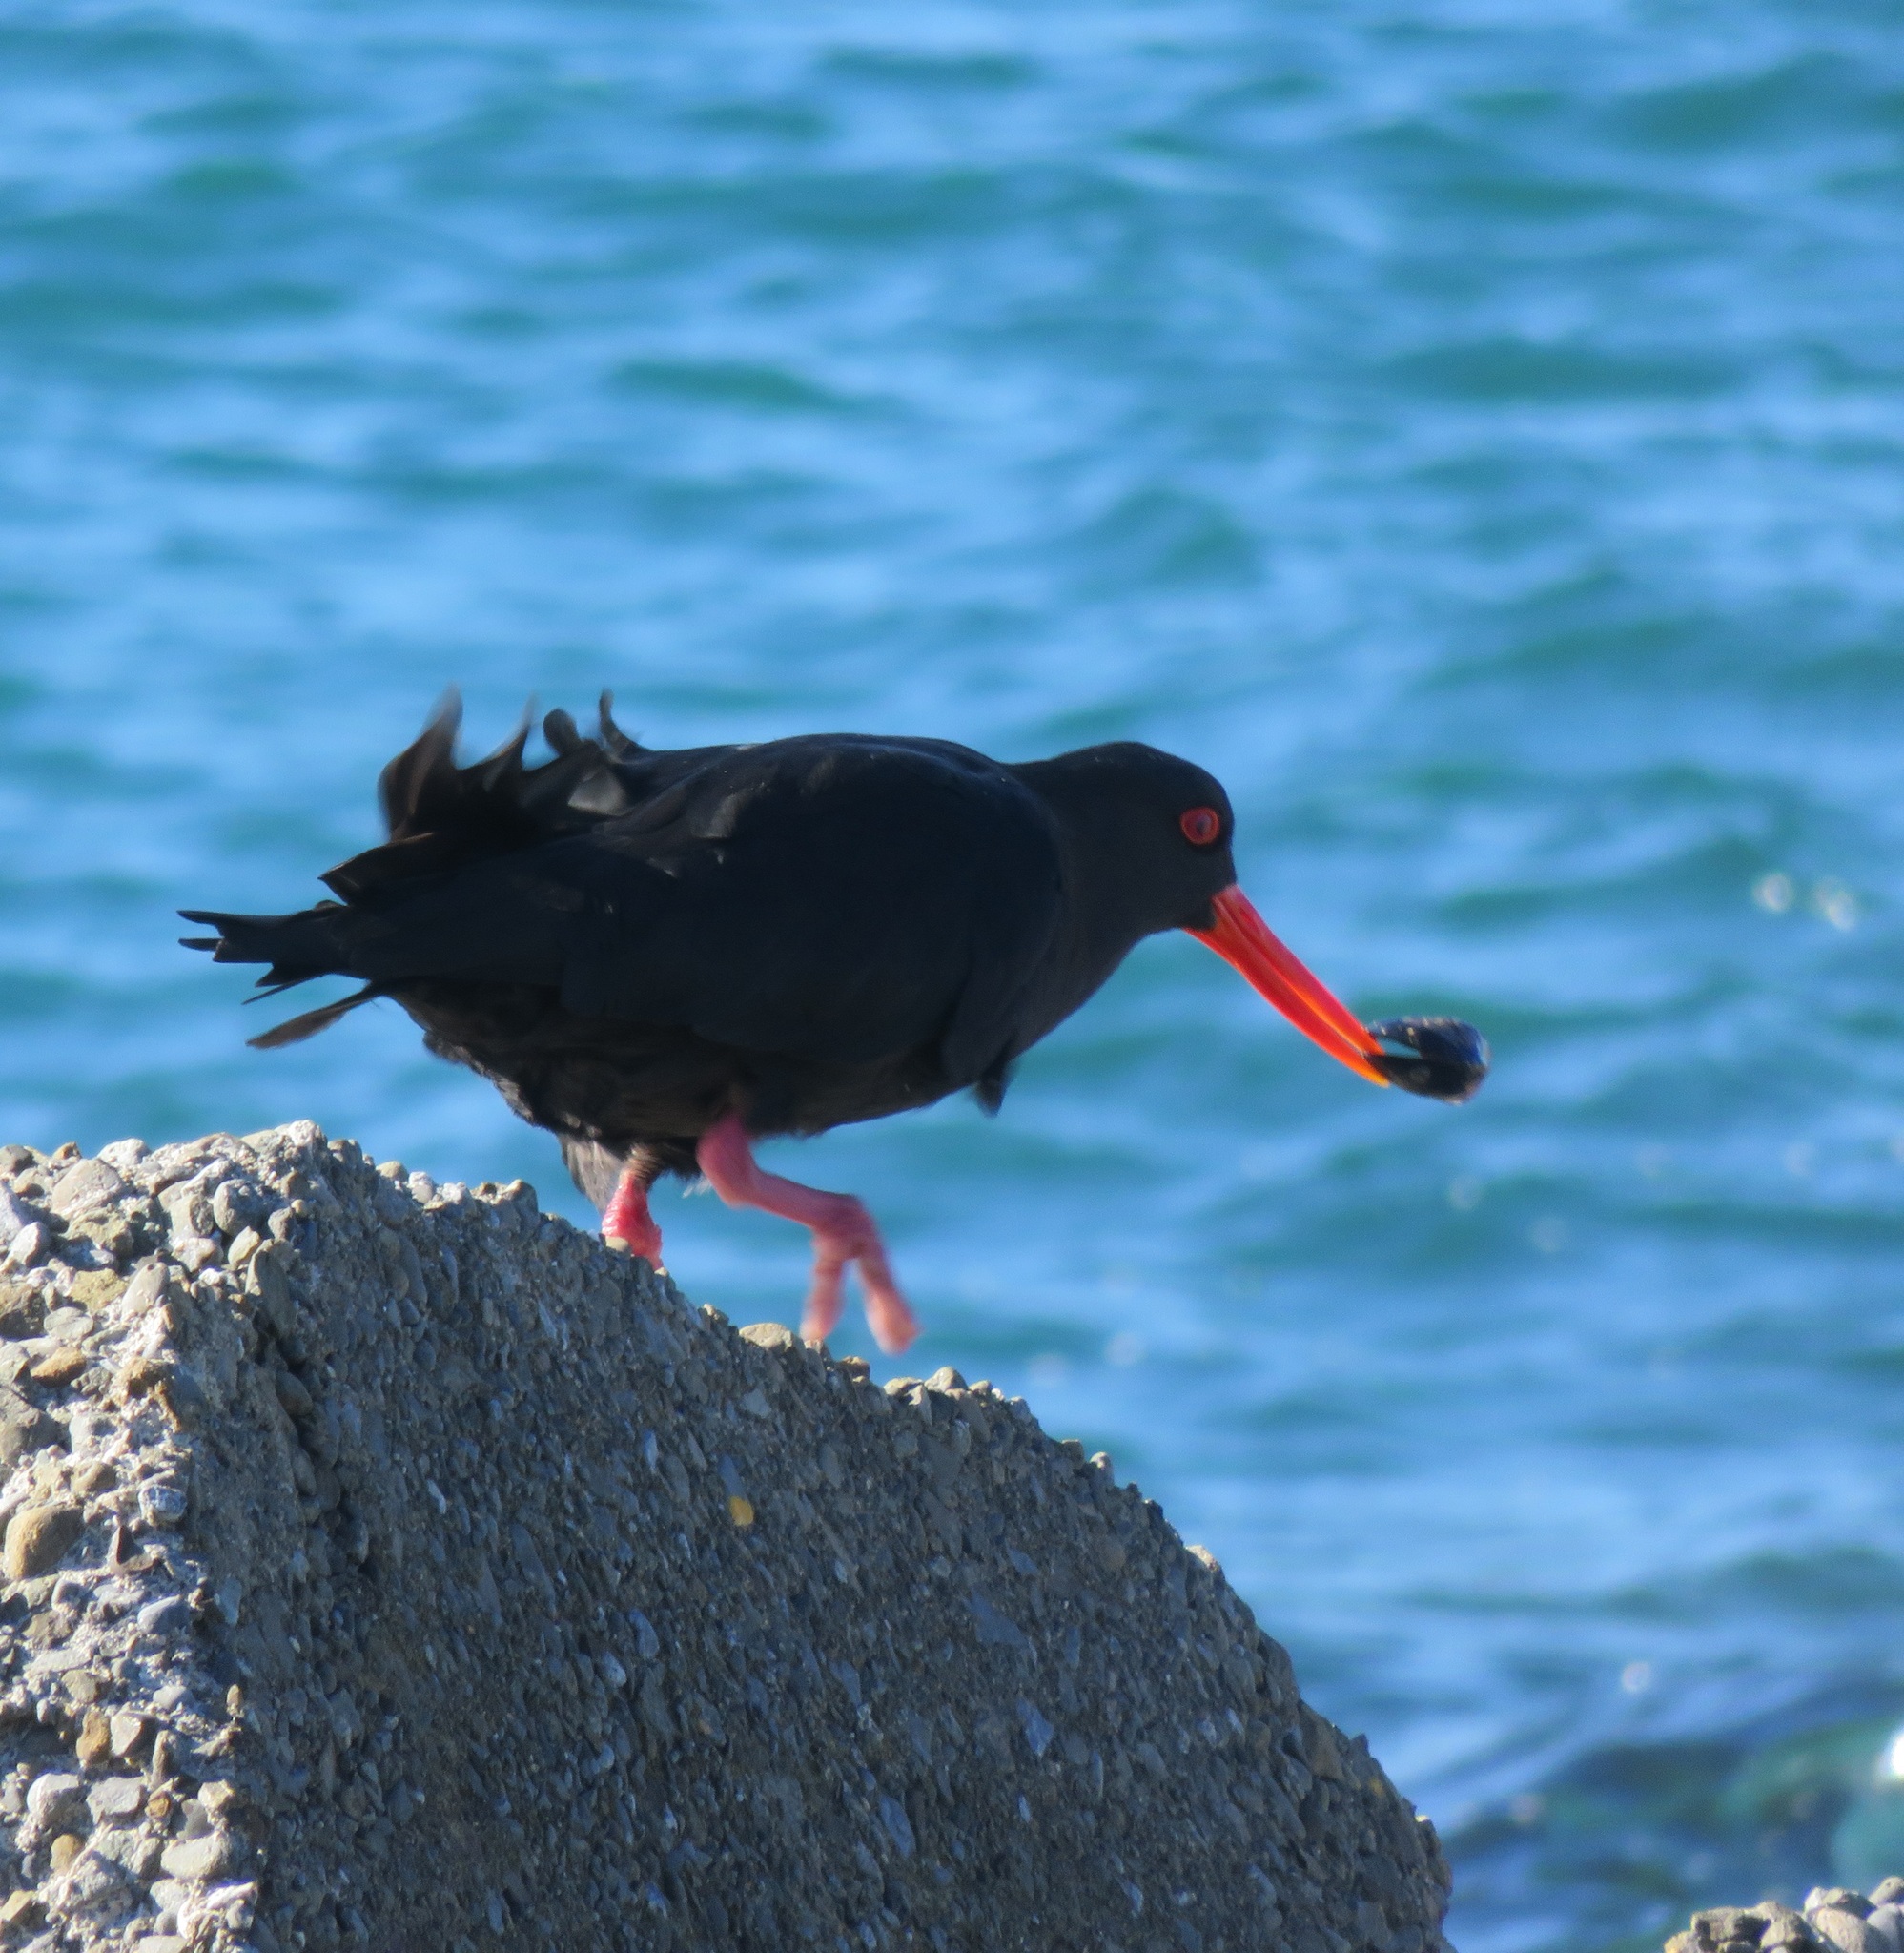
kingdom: Animalia
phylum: Chordata
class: Aves
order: Charadriiformes
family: Haematopodidae
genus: Haematopus
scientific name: Haematopus unicolor
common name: Variable oystercatcher
